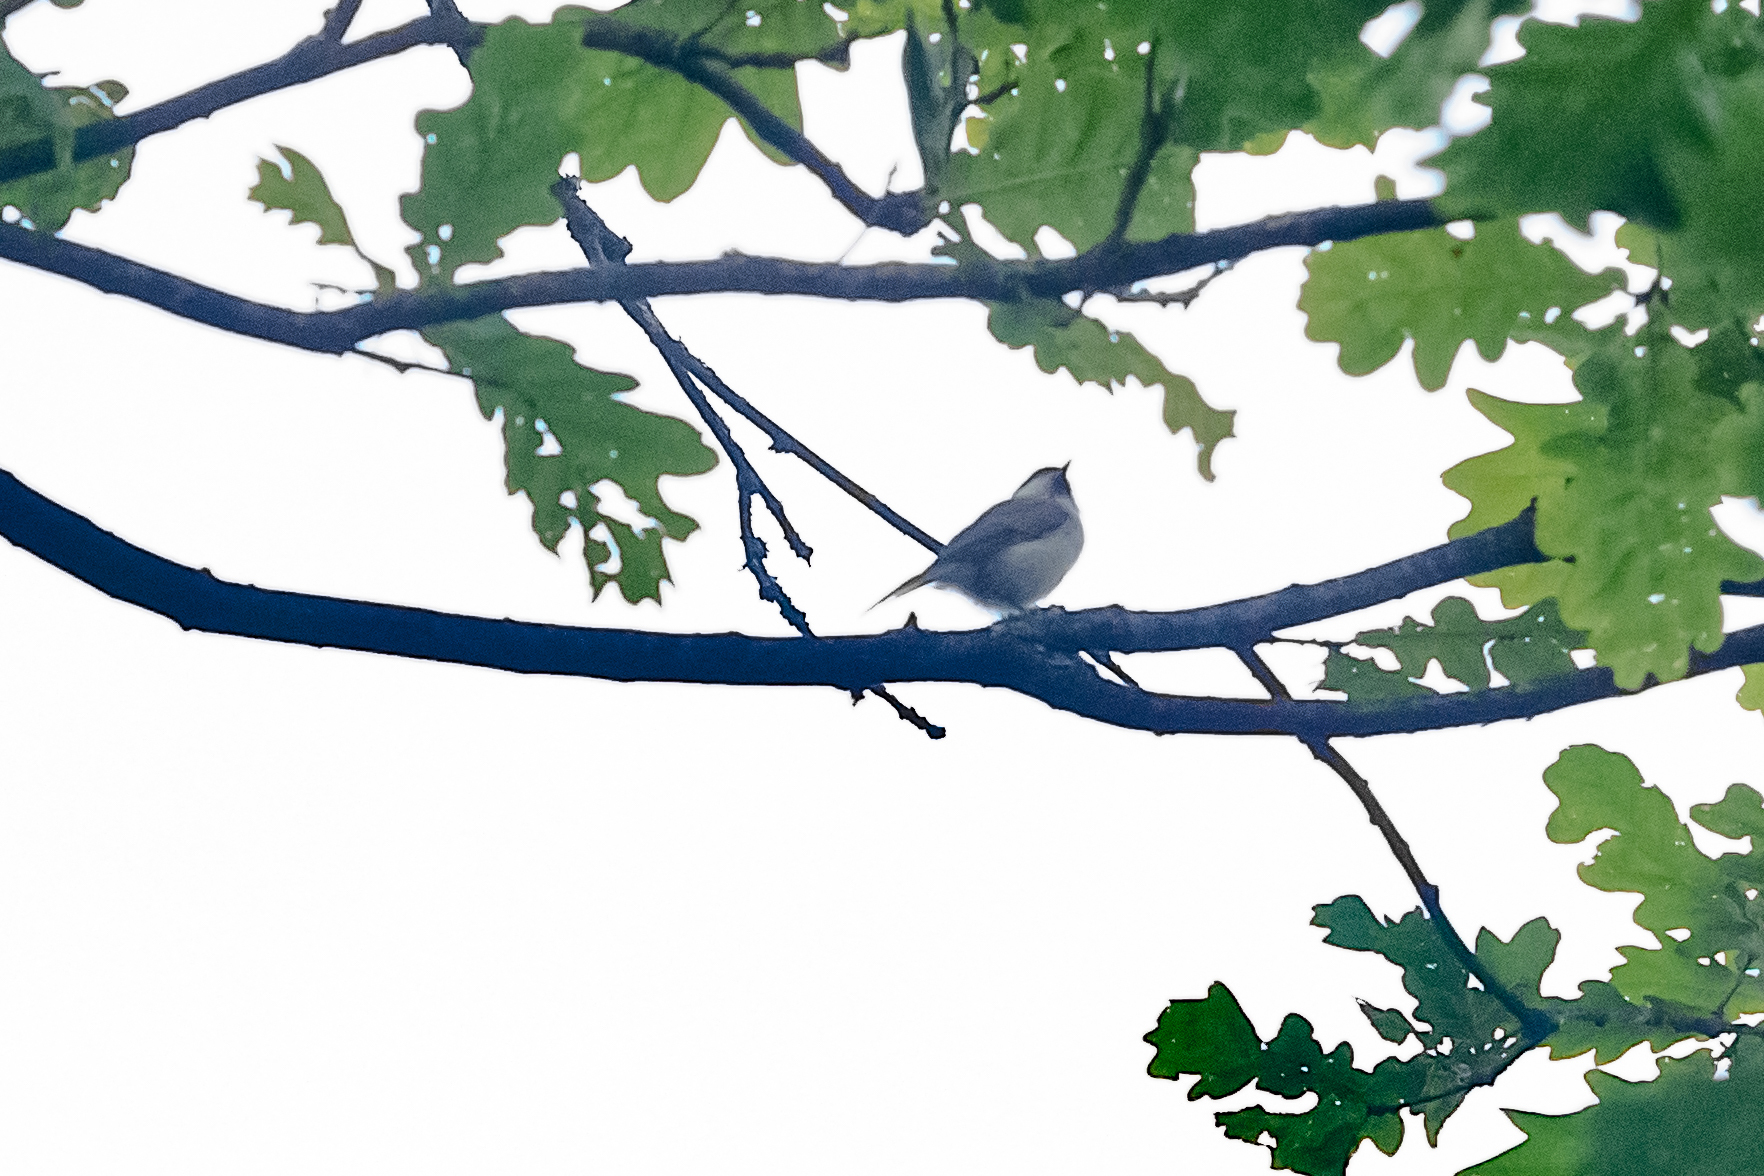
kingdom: Animalia
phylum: Chordata
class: Aves
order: Passeriformes
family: Paridae
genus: Poecile
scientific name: Poecile palustris
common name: Marsh tit
